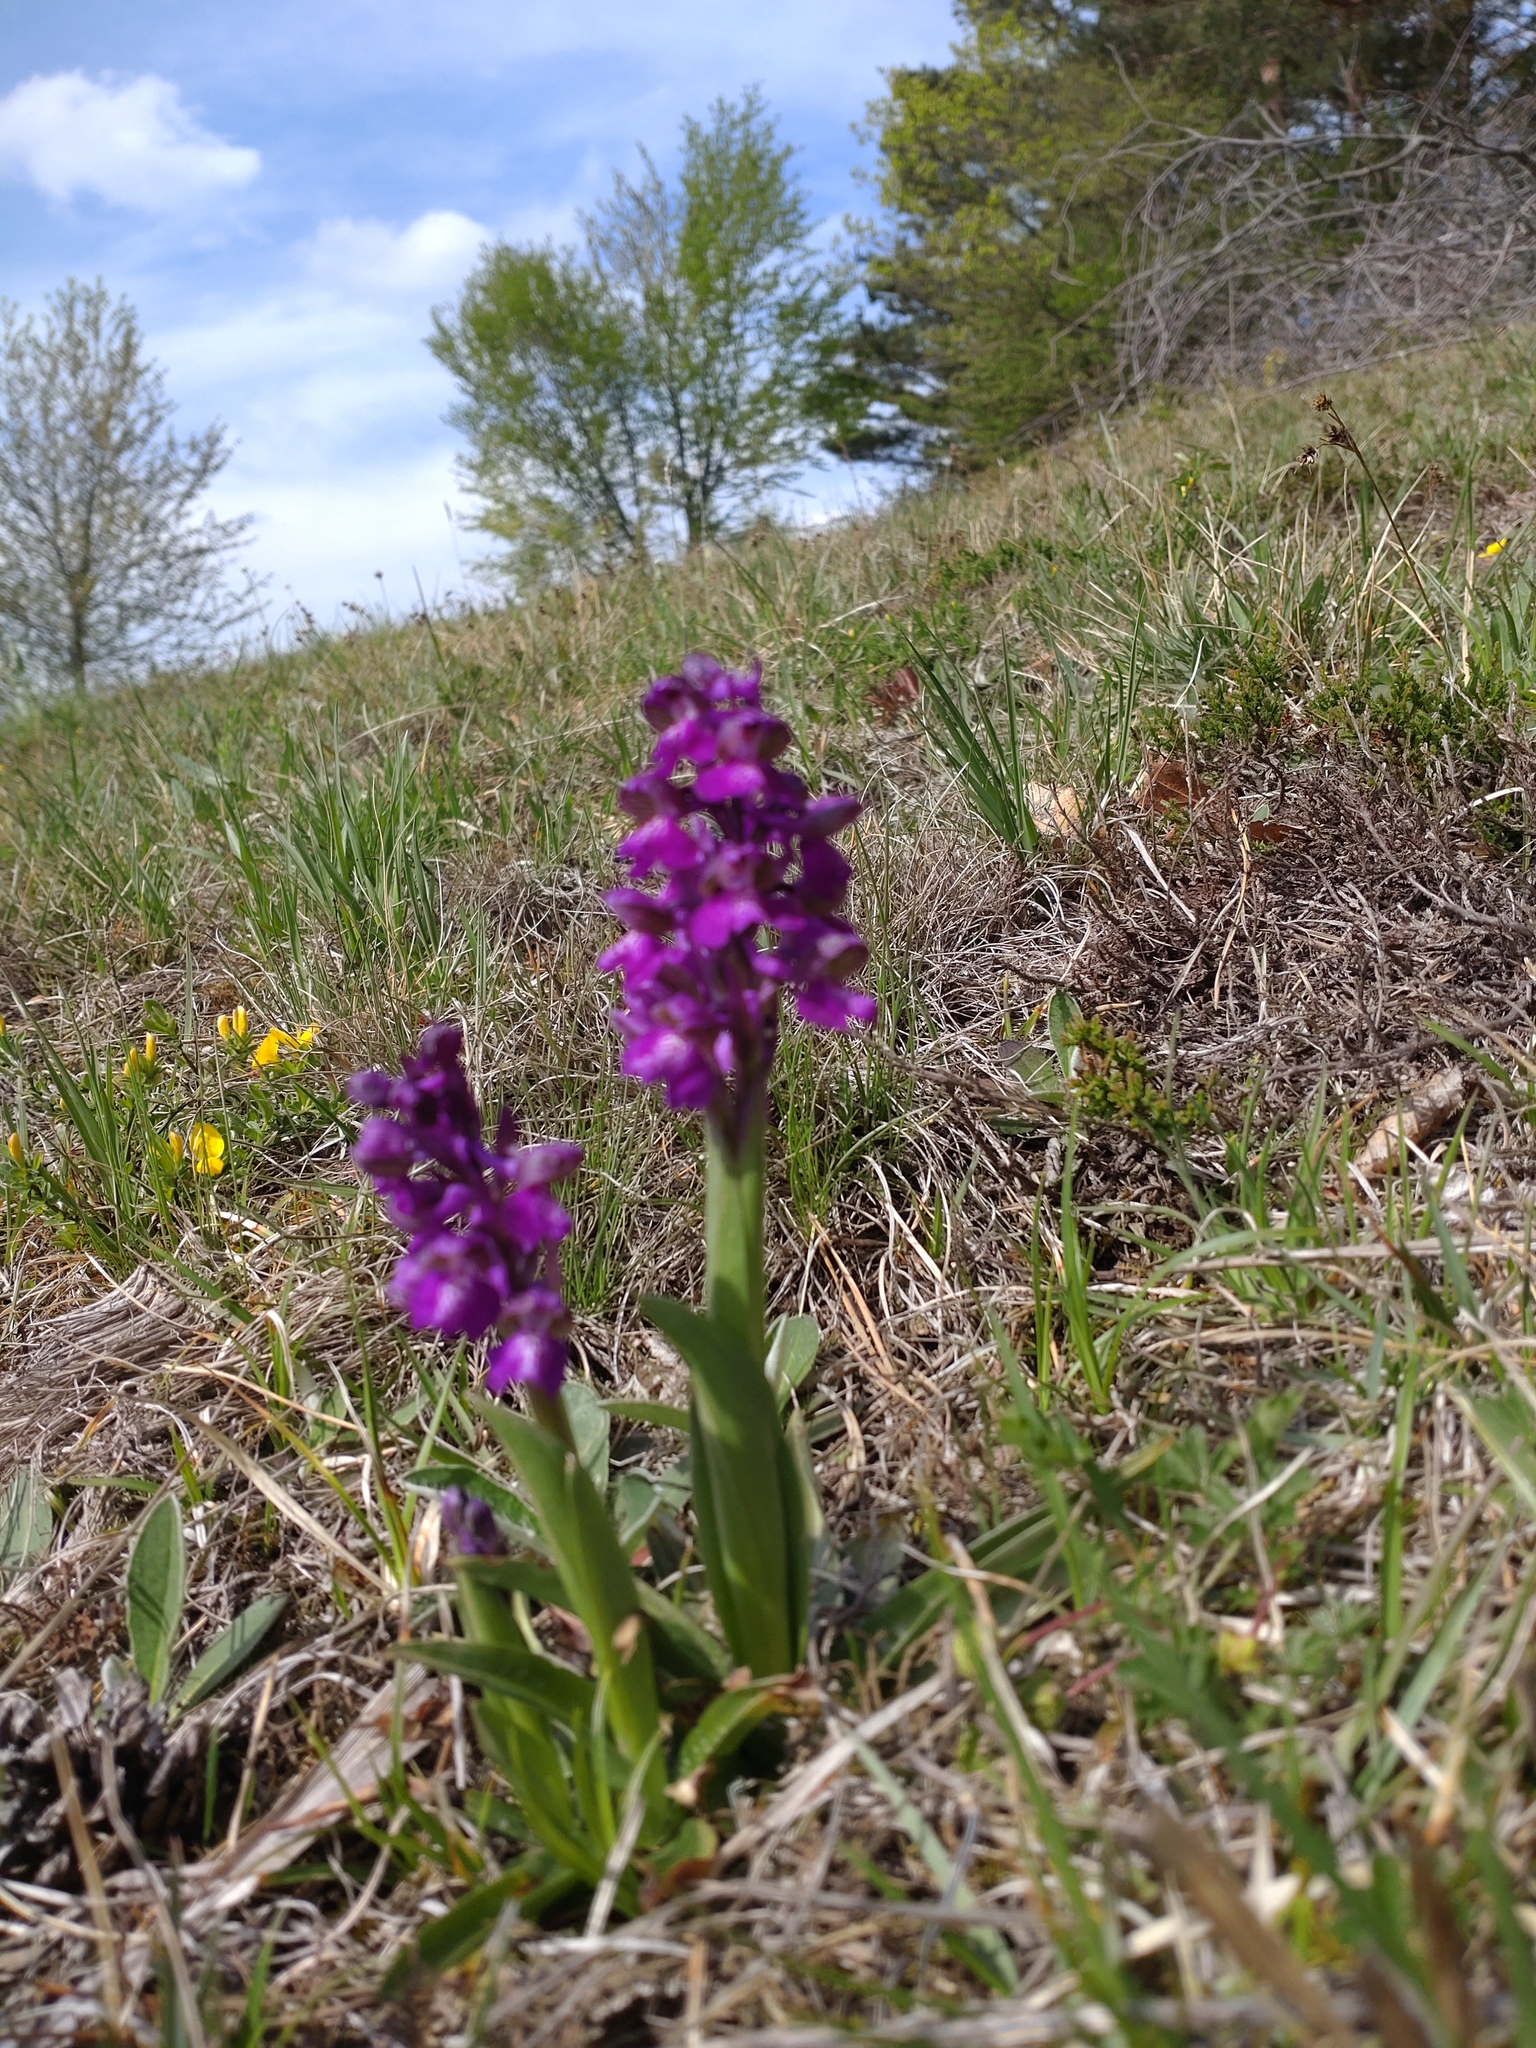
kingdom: Plantae
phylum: Tracheophyta
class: Liliopsida
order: Asparagales
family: Orchidaceae
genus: Anacamptis
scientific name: Anacamptis morio
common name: Green-winged orchid
